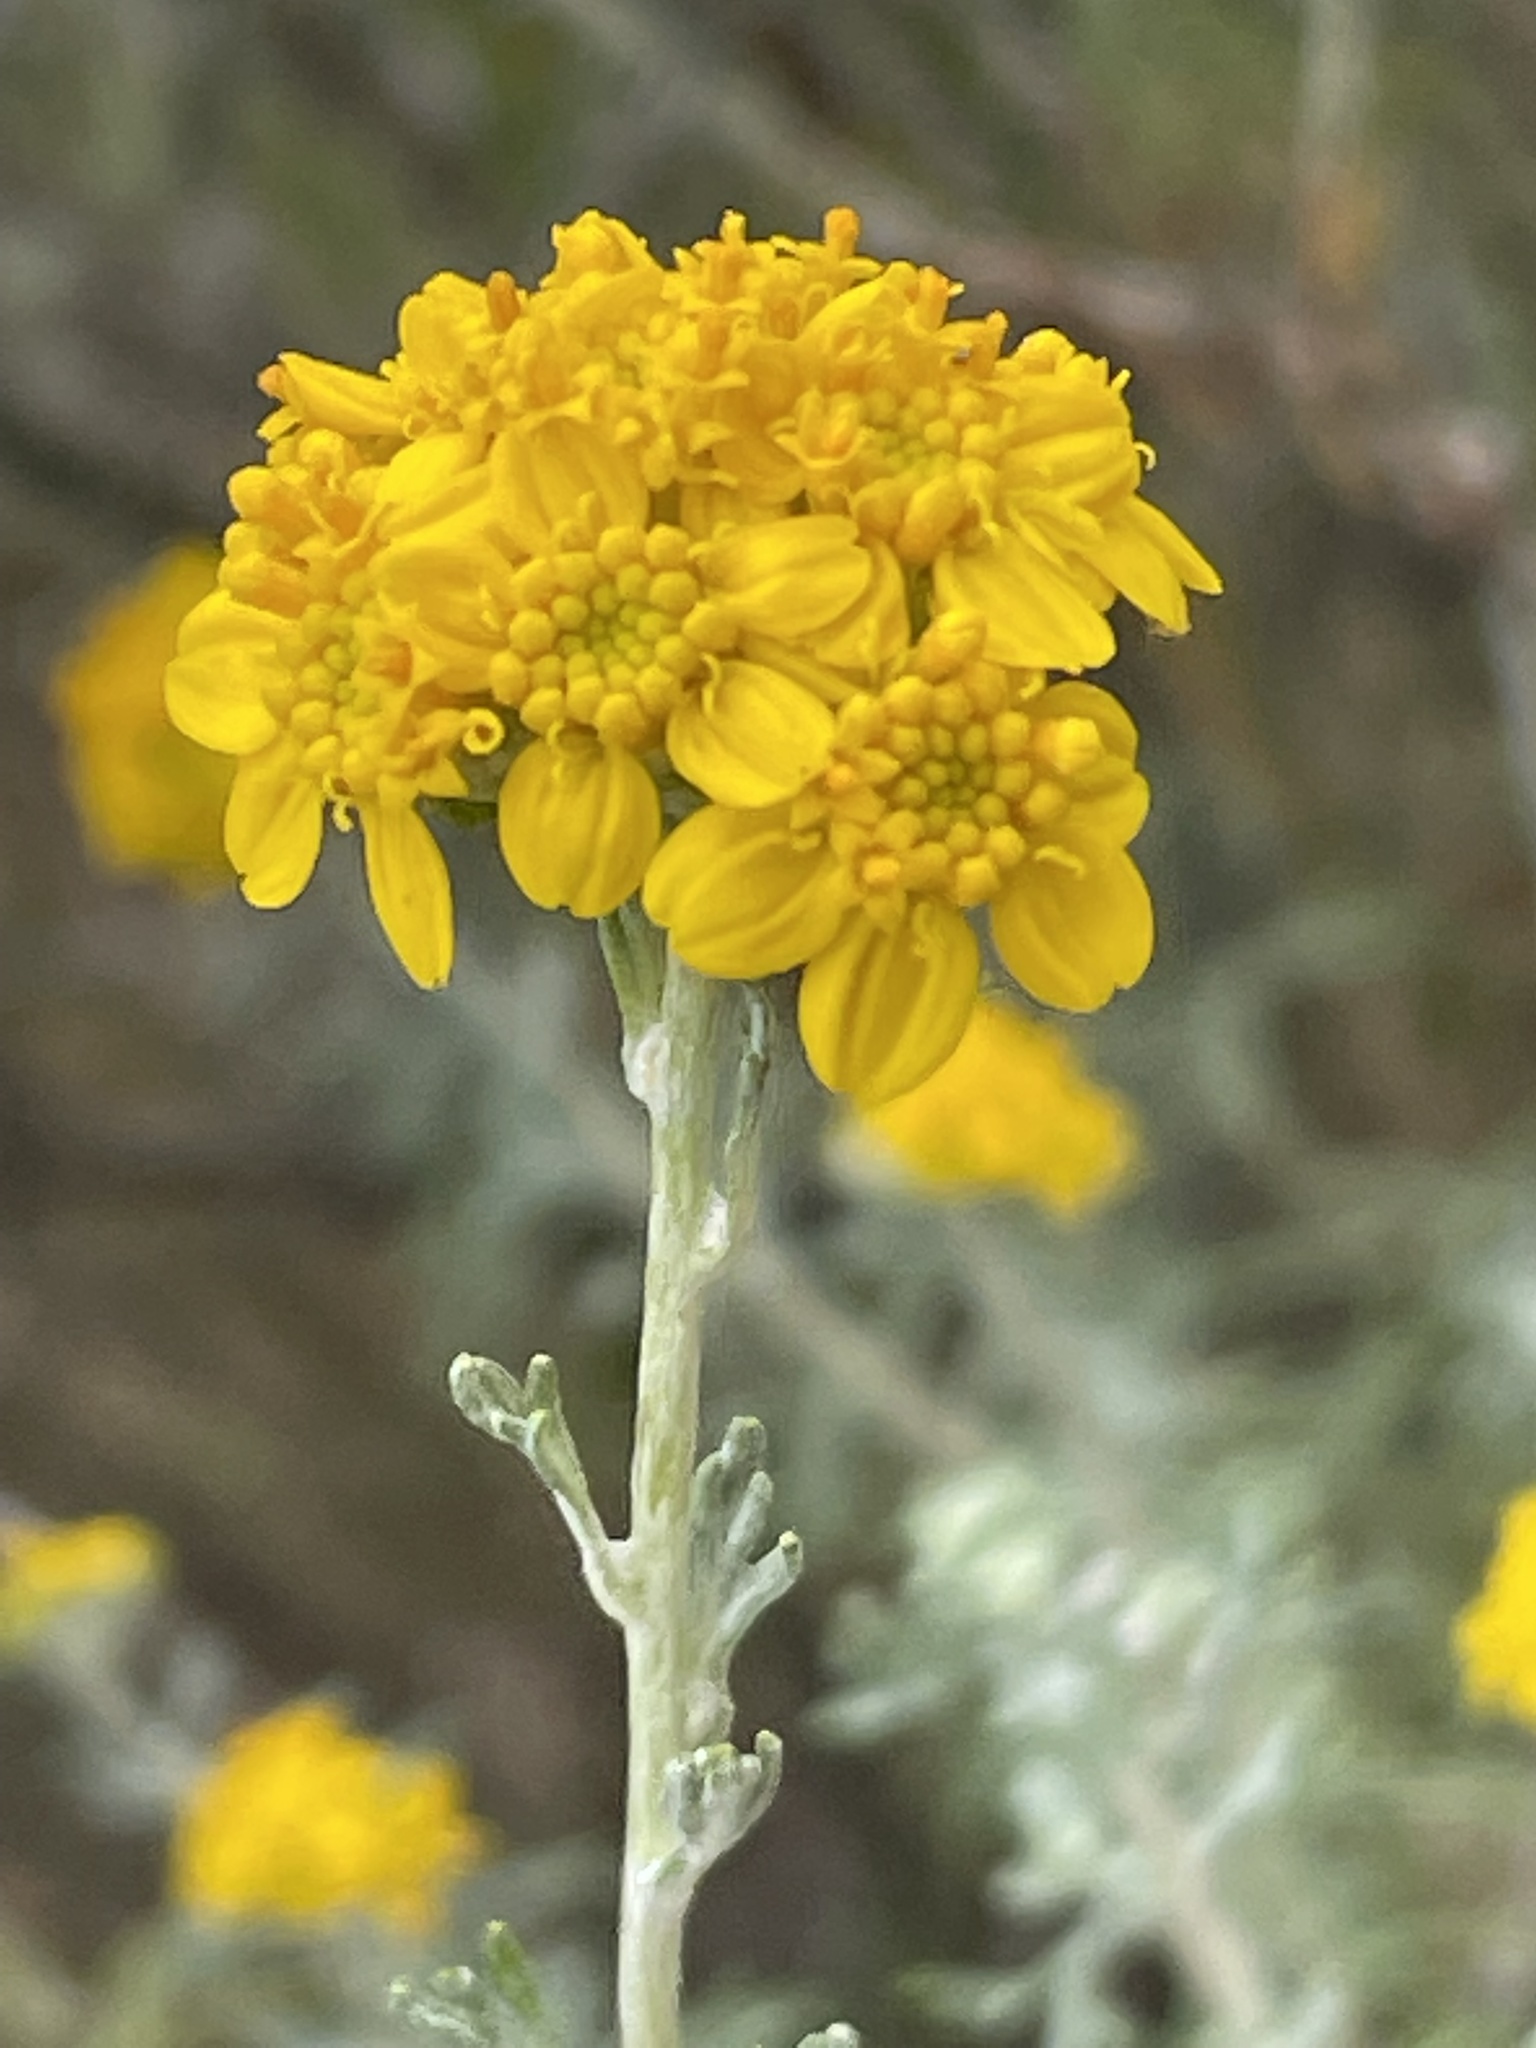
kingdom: Plantae
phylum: Tracheophyta
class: Magnoliopsida
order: Asterales
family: Asteraceae
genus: Eriophyllum
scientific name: Eriophyllum confertiflorum
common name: Golden-yarrow
